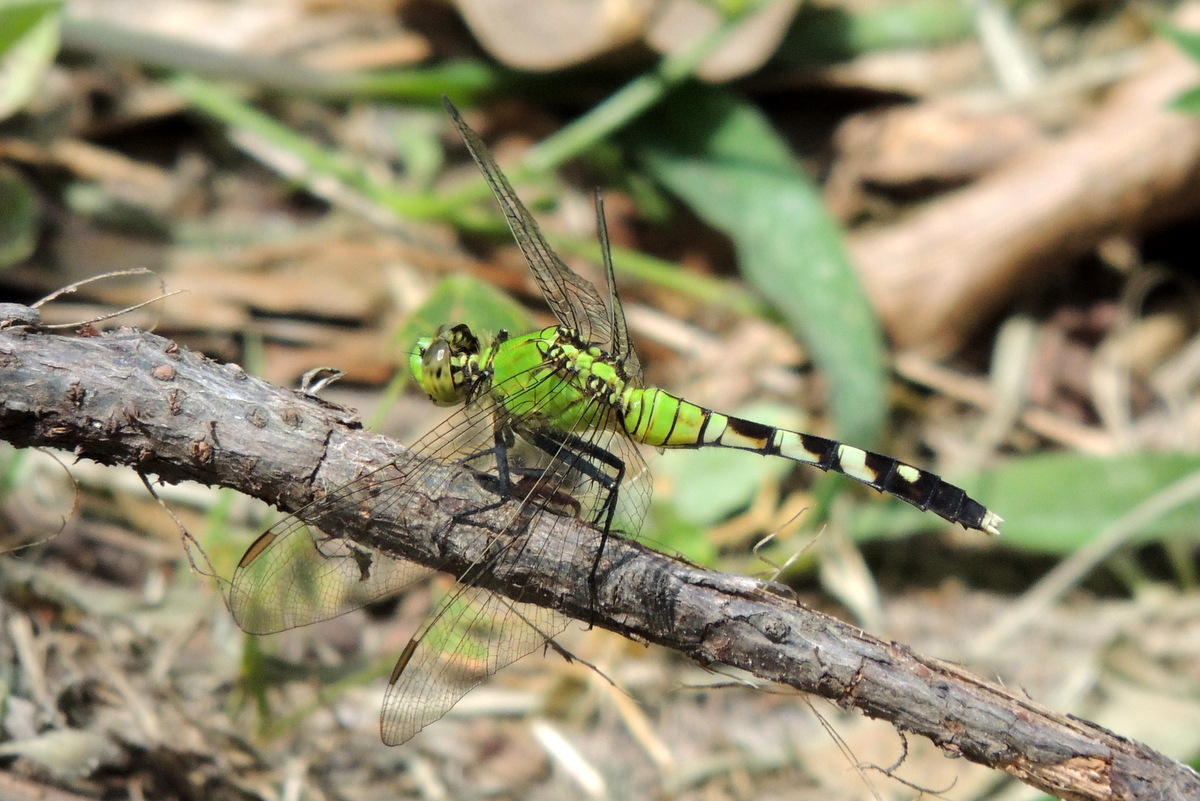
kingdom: Animalia
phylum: Arthropoda
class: Insecta
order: Odonata
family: Libellulidae
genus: Erythemis
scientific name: Erythemis simplicicollis
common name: Eastern pondhawk
